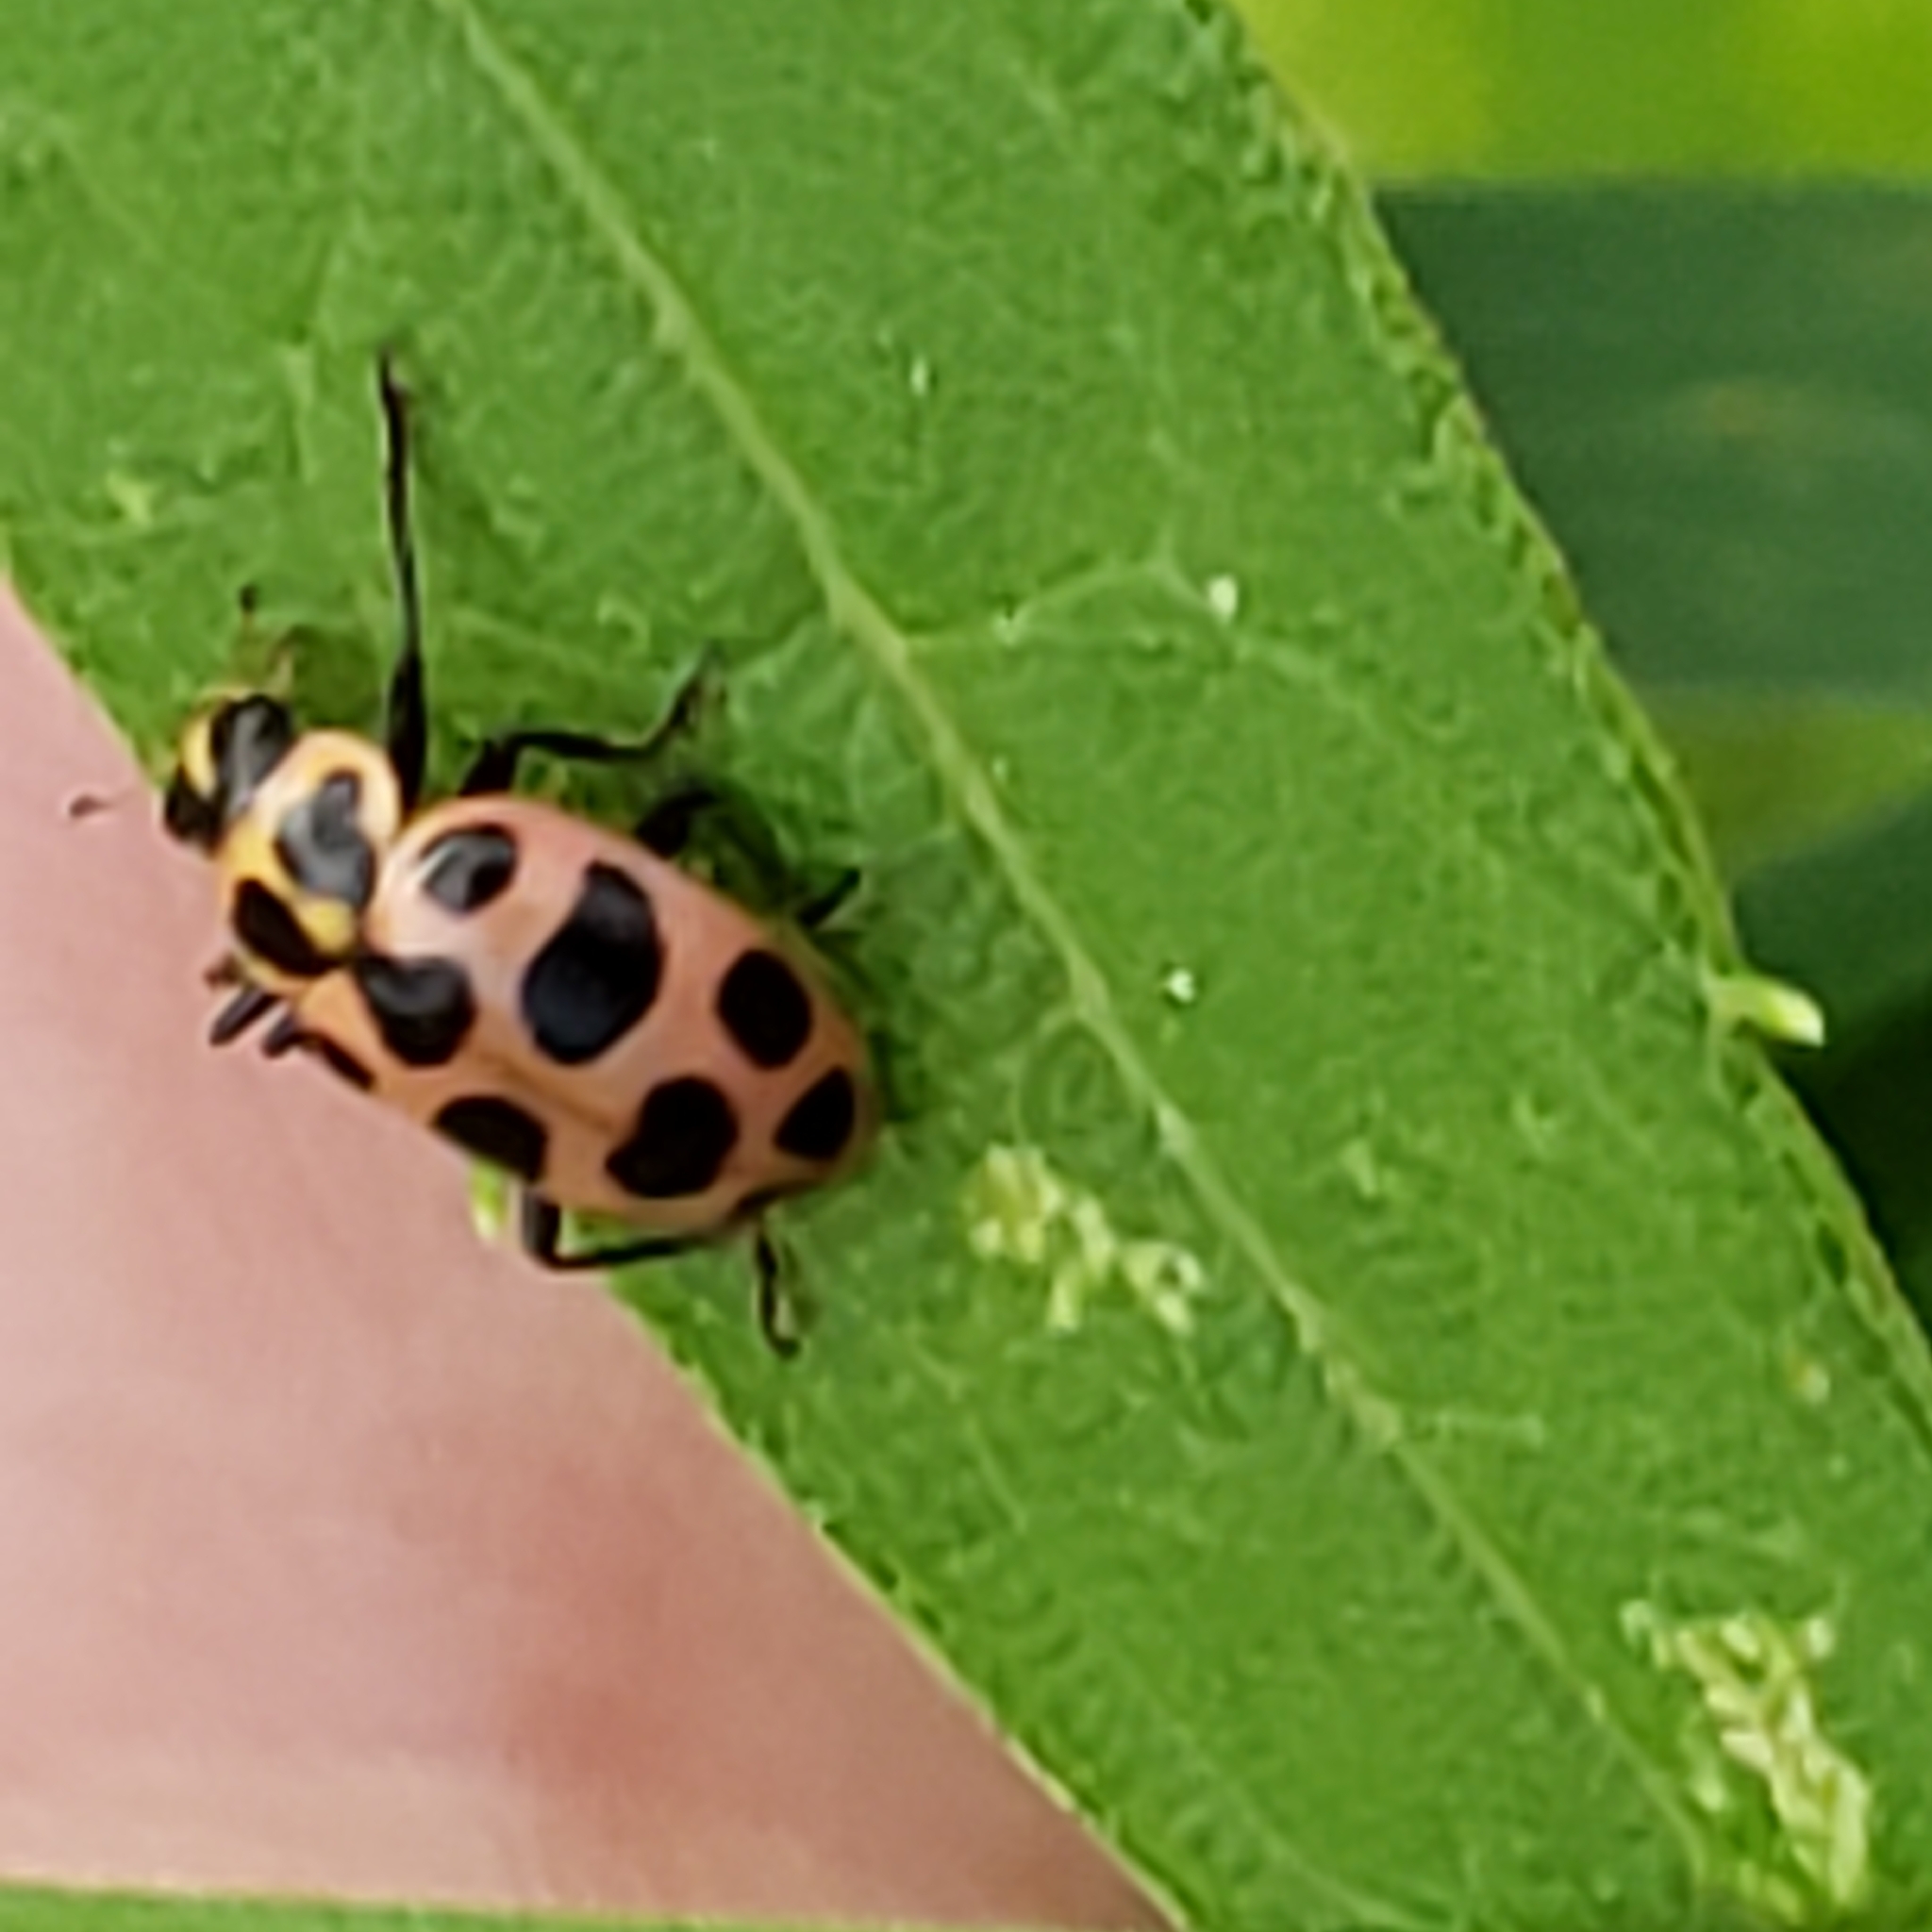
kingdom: Animalia
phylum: Arthropoda
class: Insecta
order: Coleoptera
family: Coccinellidae
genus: Coleomegilla
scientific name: Coleomegilla maculata
